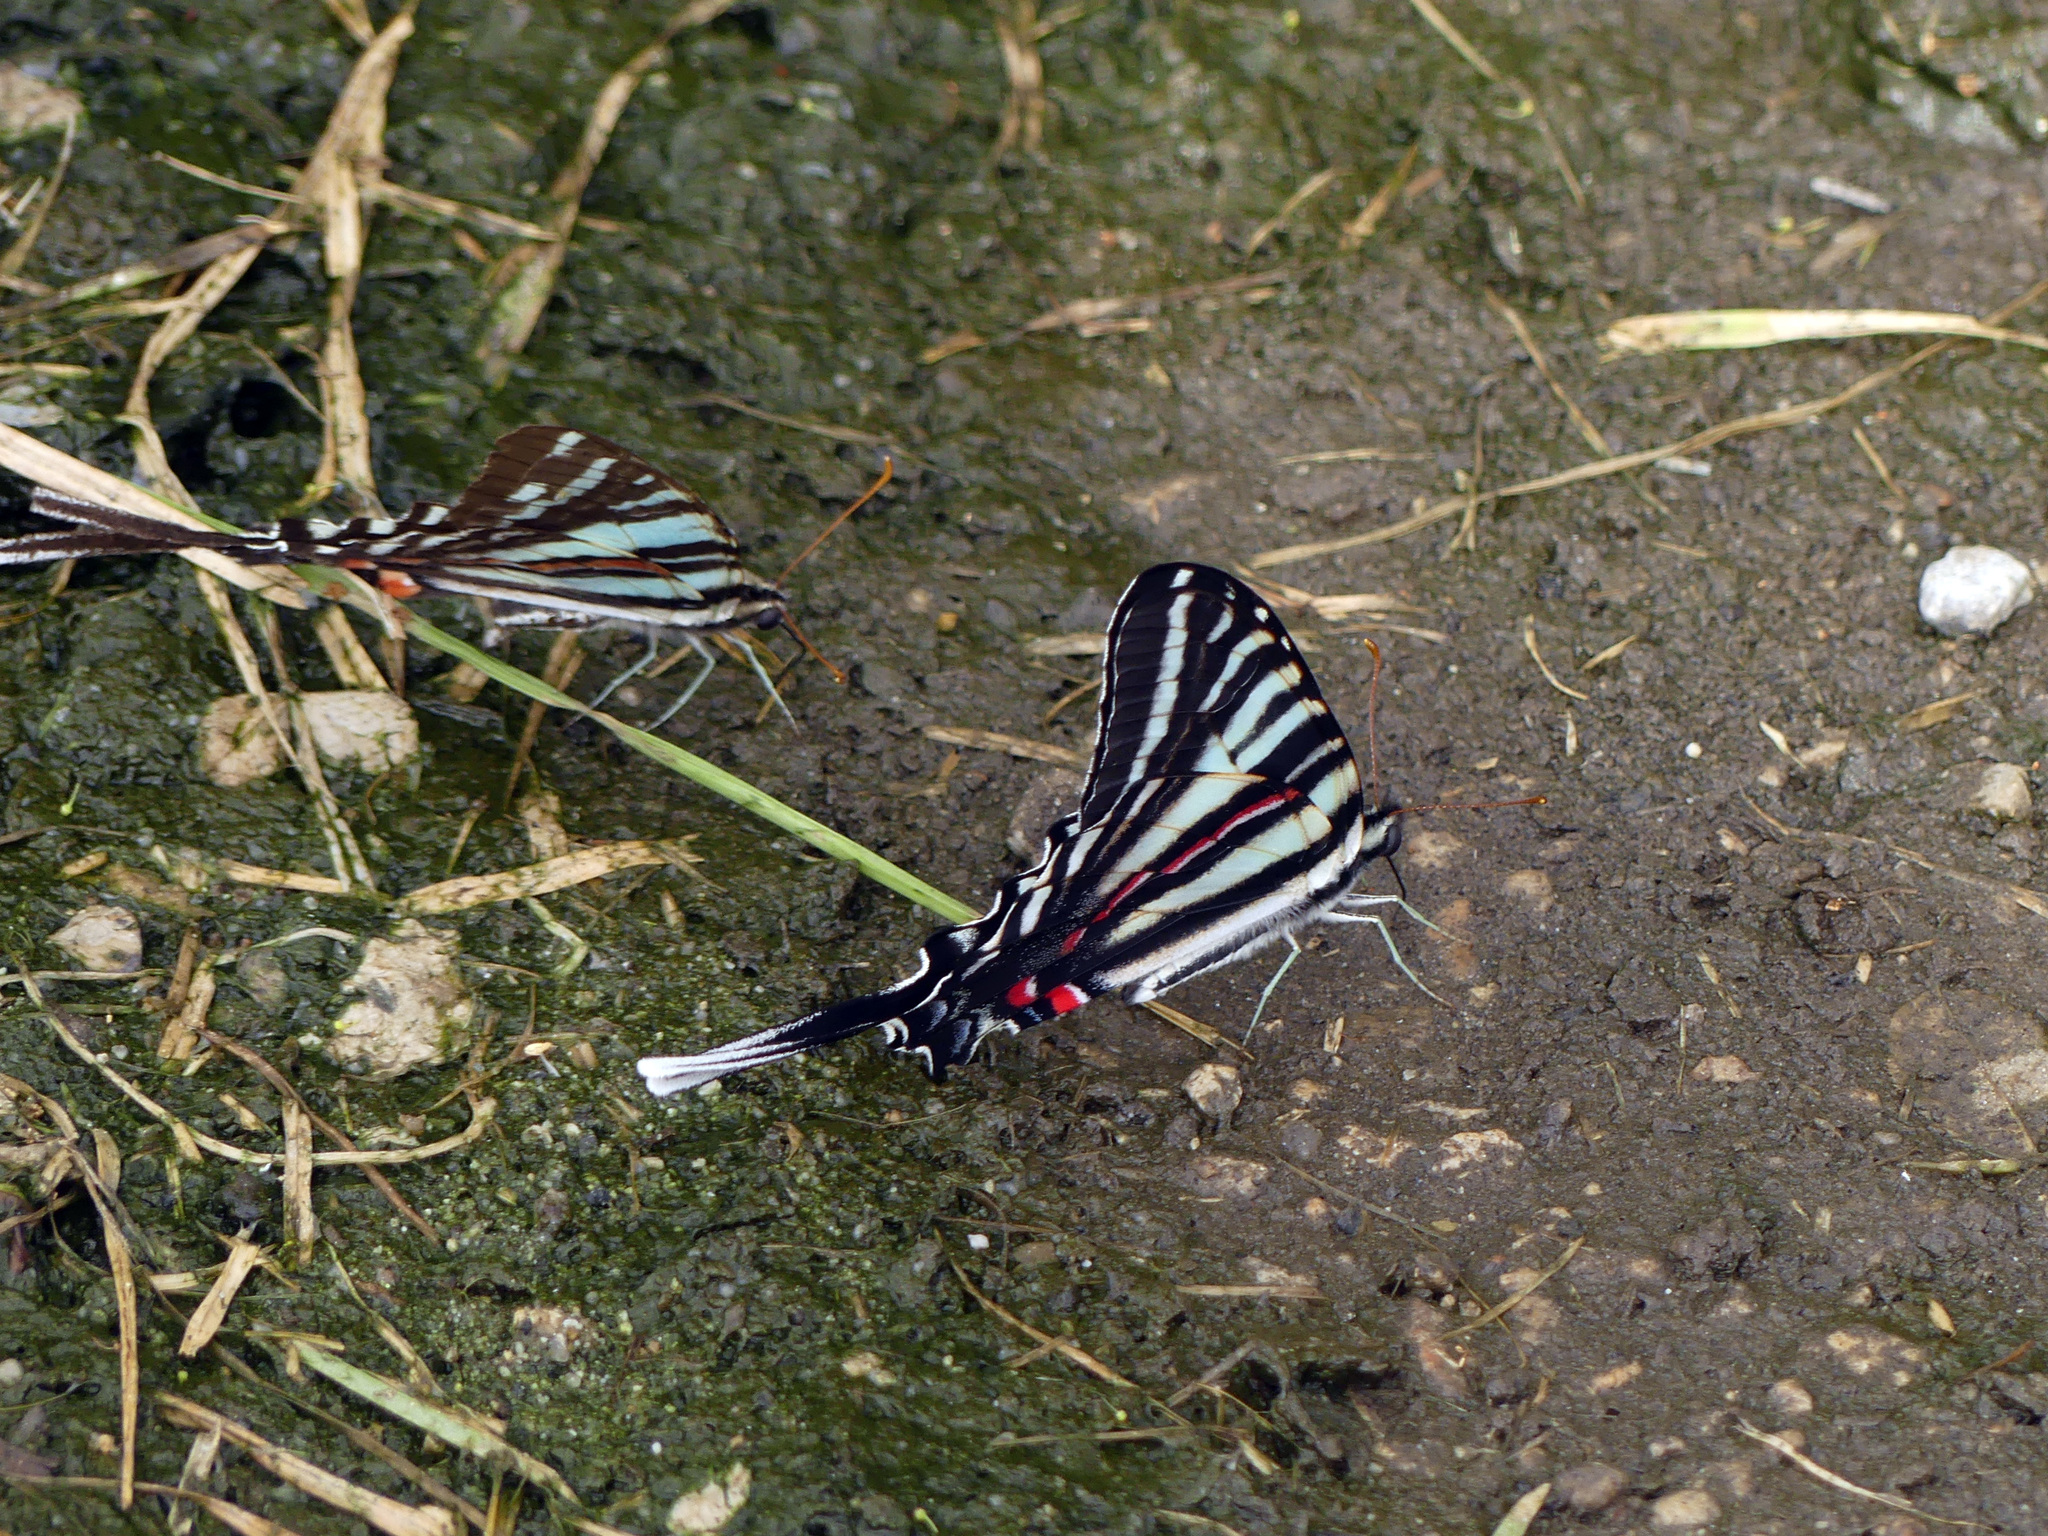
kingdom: Animalia
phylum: Arthropoda
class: Insecta
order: Lepidoptera
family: Papilionidae
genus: Protographium
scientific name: Protographium marcellus
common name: Zebra swallowtail
